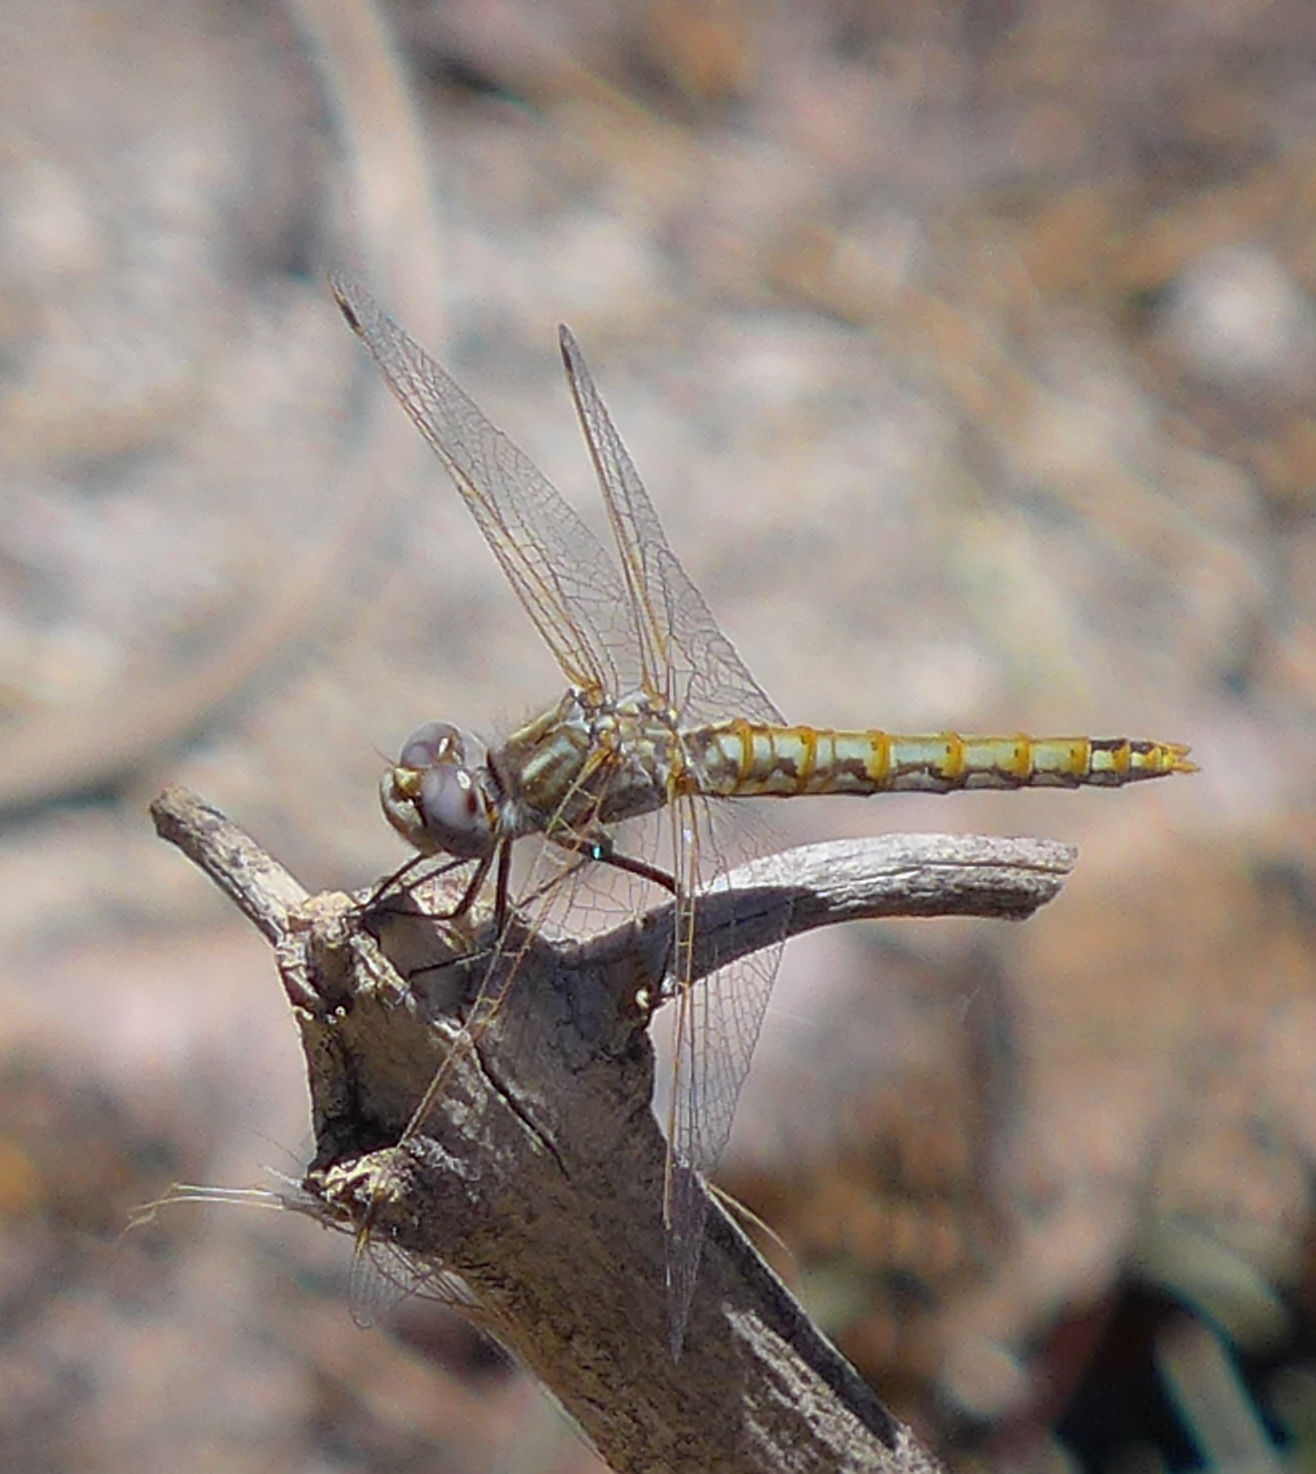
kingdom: Animalia
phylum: Arthropoda
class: Insecta
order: Odonata
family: Libellulidae
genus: Sympetrum
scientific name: Sympetrum corruptum
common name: Variegated meadowhawk
